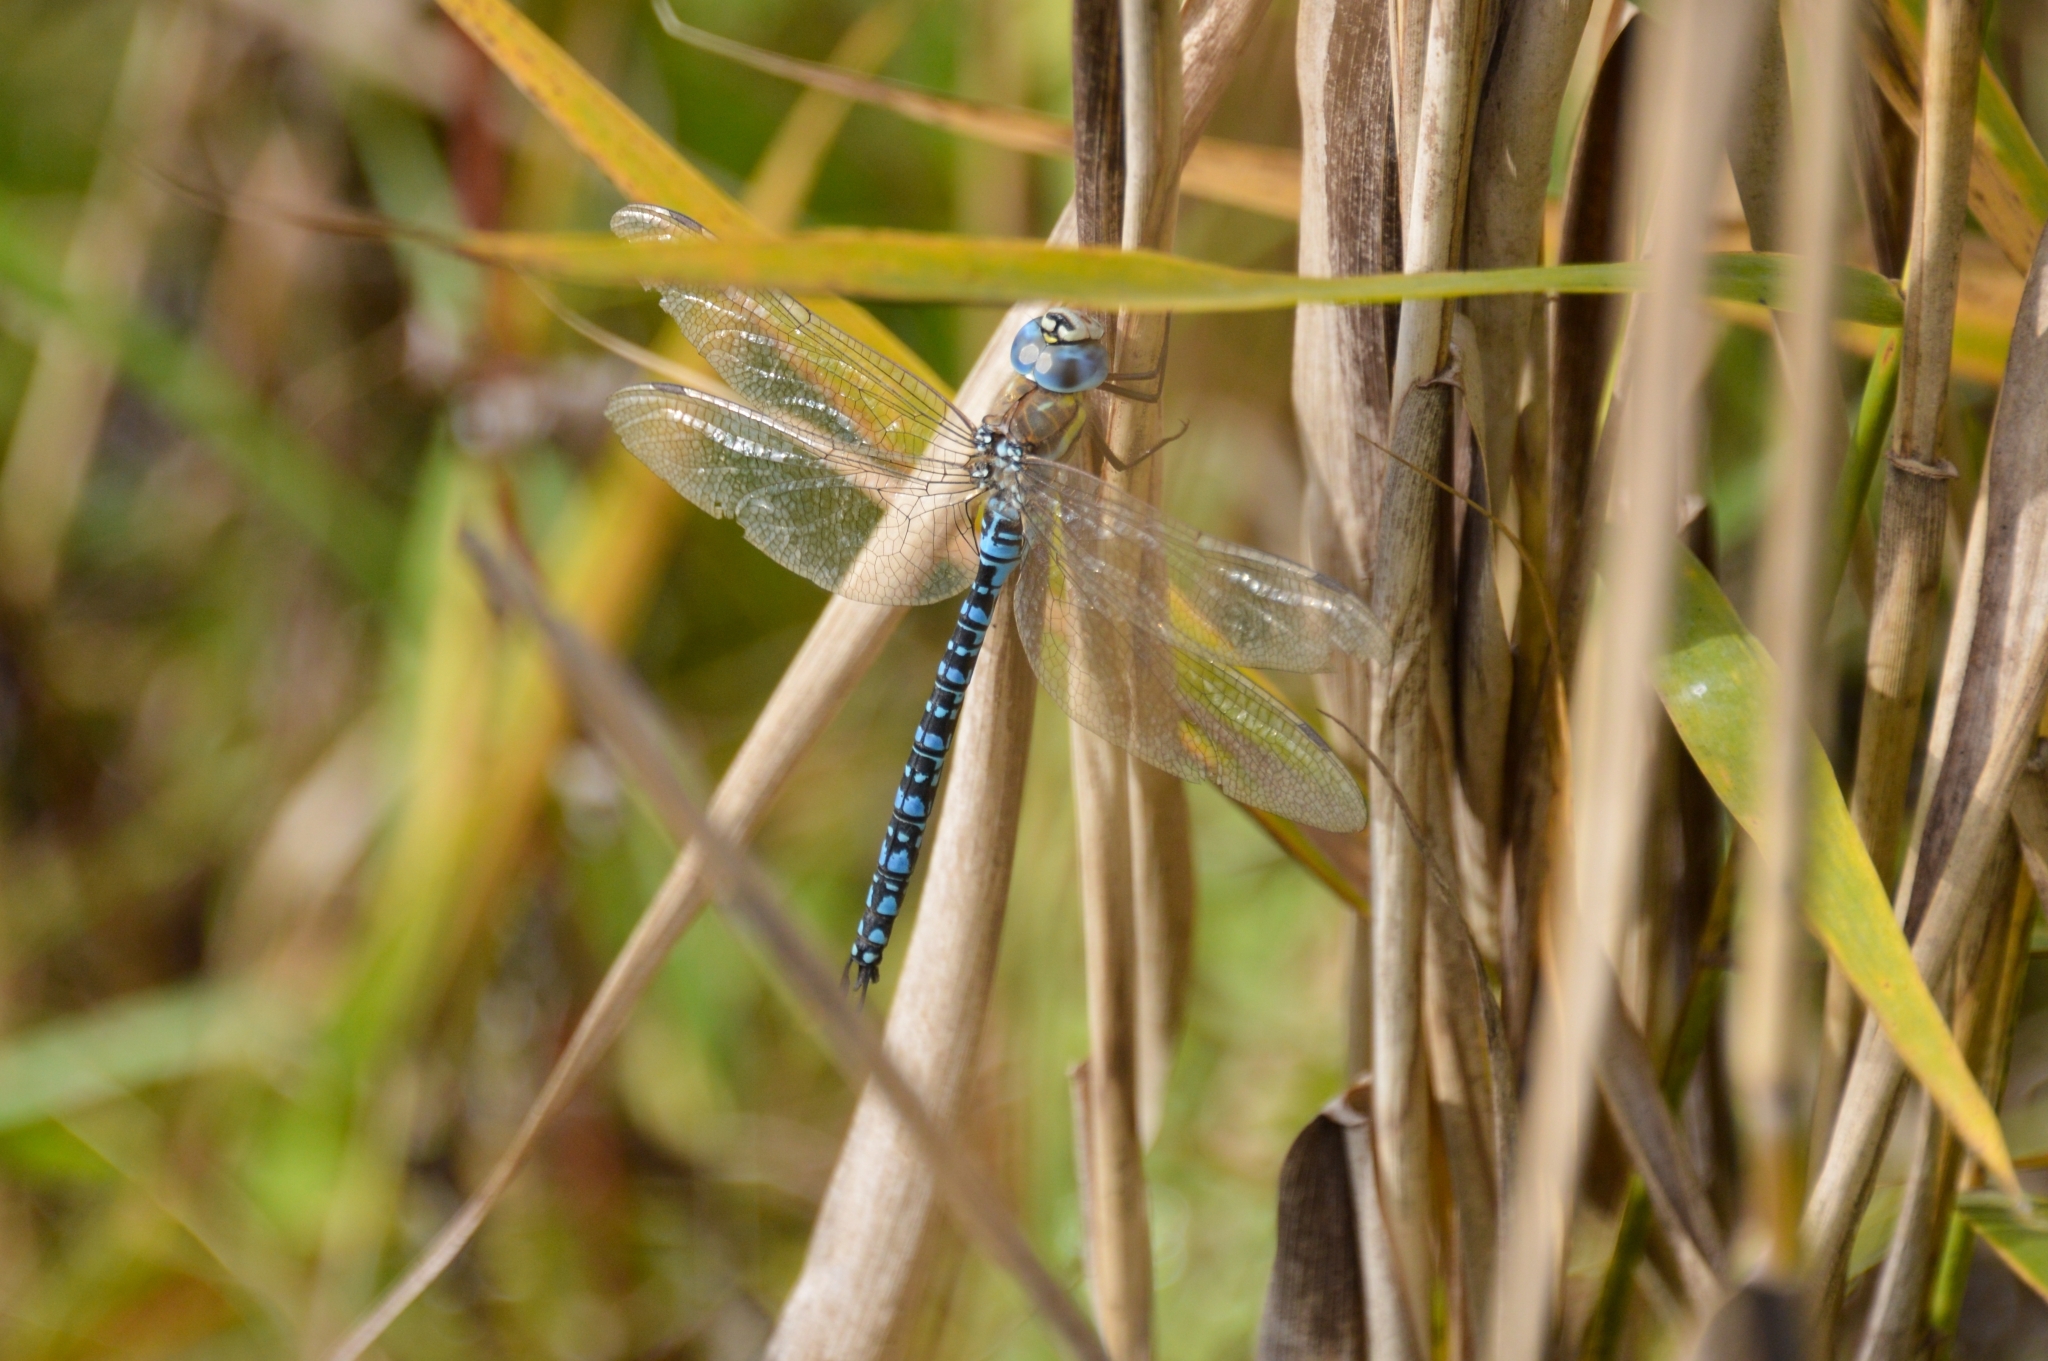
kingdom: Animalia
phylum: Arthropoda
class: Insecta
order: Odonata
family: Aeshnidae
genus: Aeshna
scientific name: Aeshna soneharai
